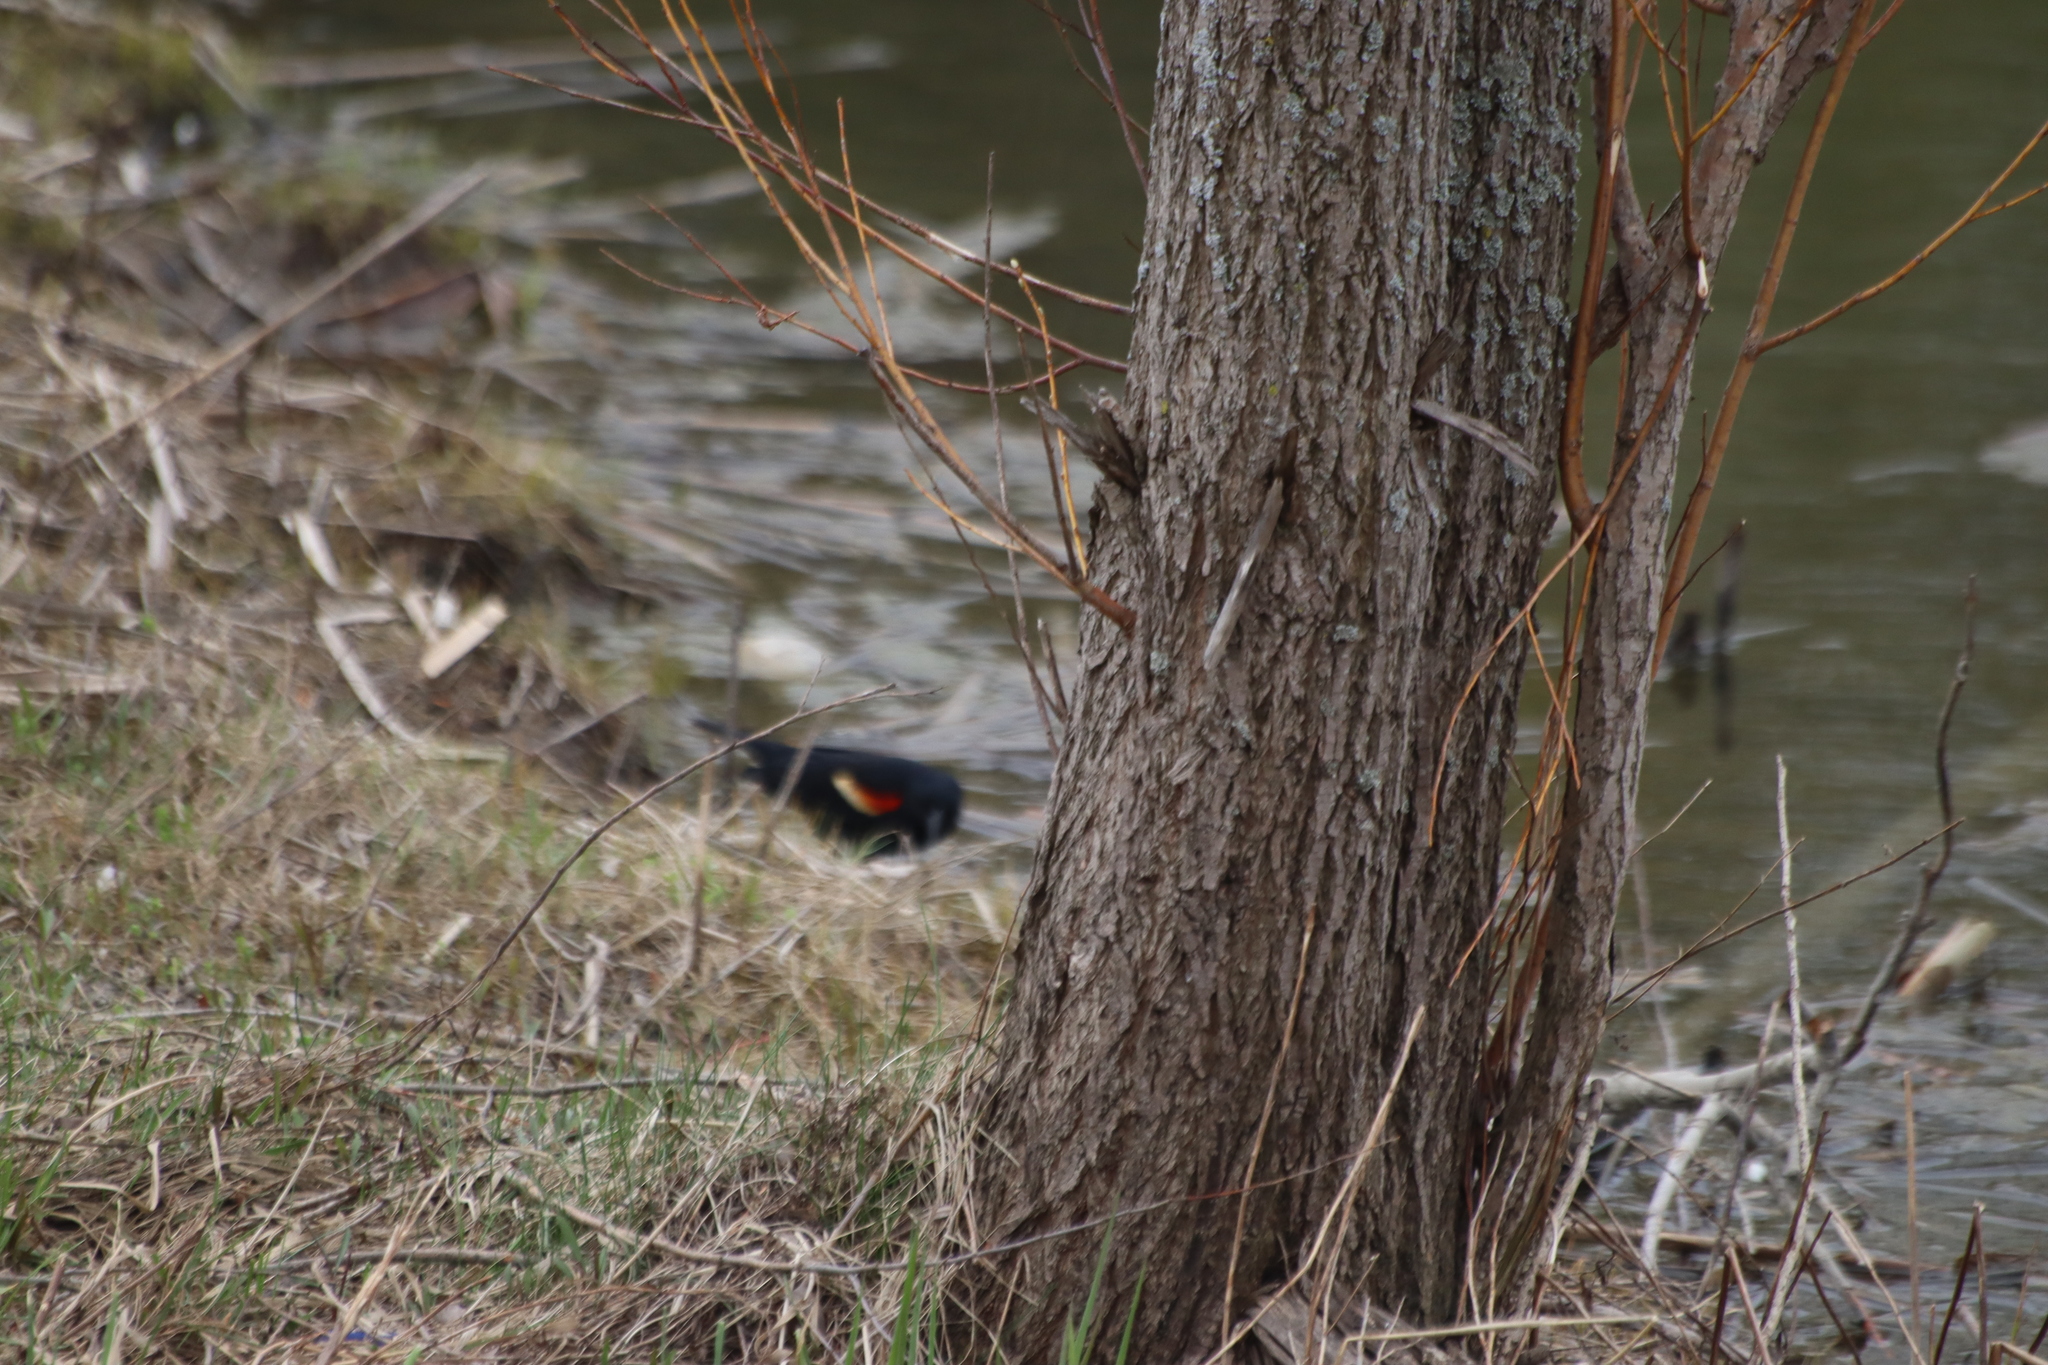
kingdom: Animalia
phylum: Chordata
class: Aves
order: Passeriformes
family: Icteridae
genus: Agelaius
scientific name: Agelaius phoeniceus
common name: Red-winged blackbird
